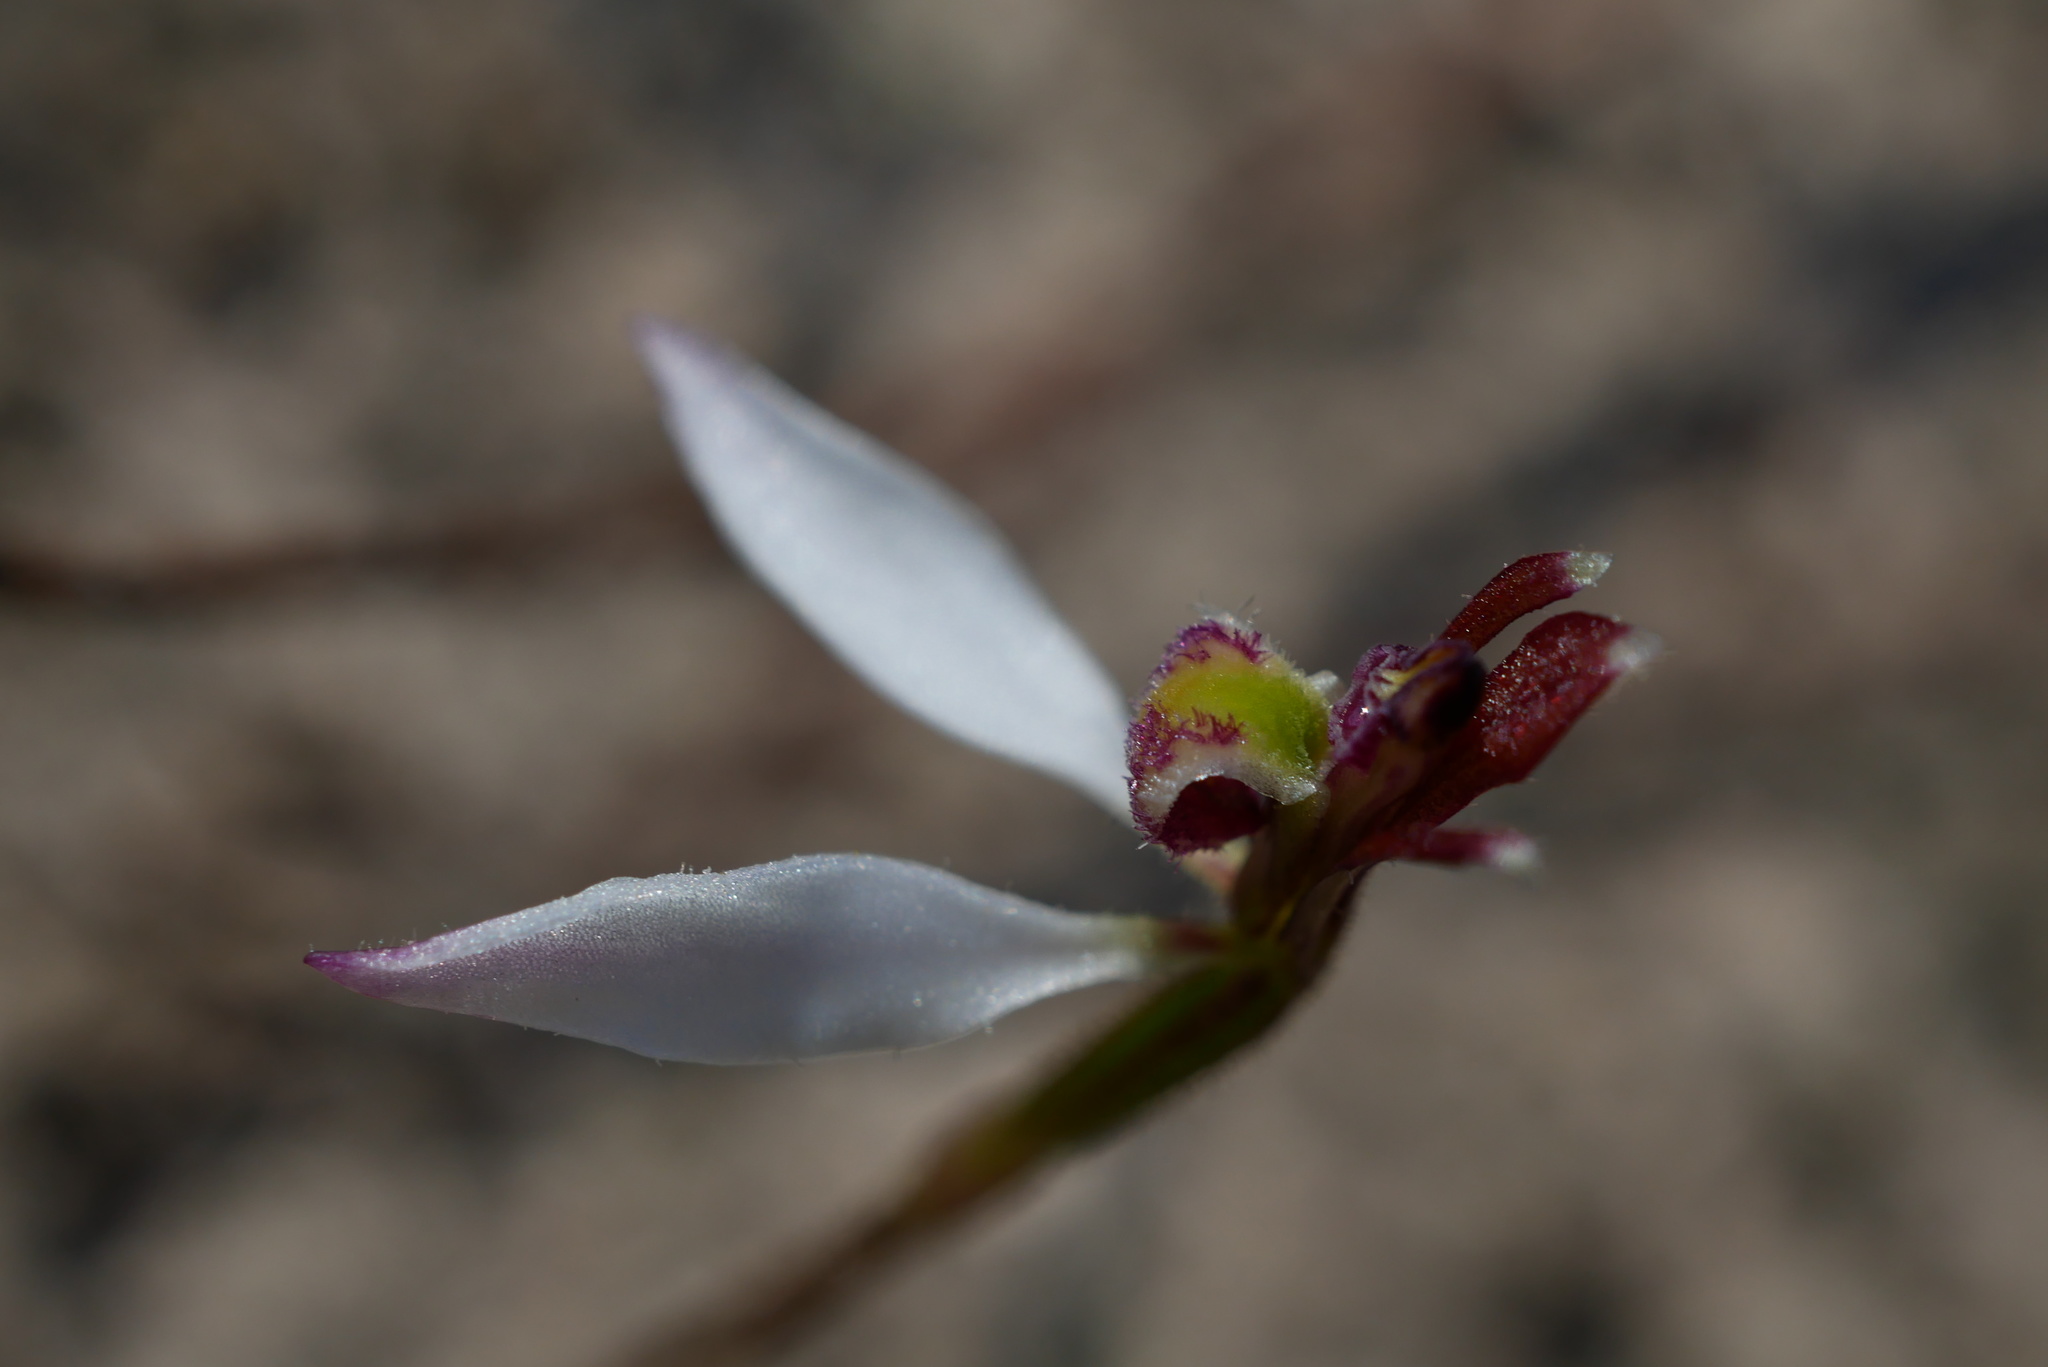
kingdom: Plantae
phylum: Tracheophyta
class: Liliopsida
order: Asparagales
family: Orchidaceae
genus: Eriochilus
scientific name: Eriochilus cucullatus
